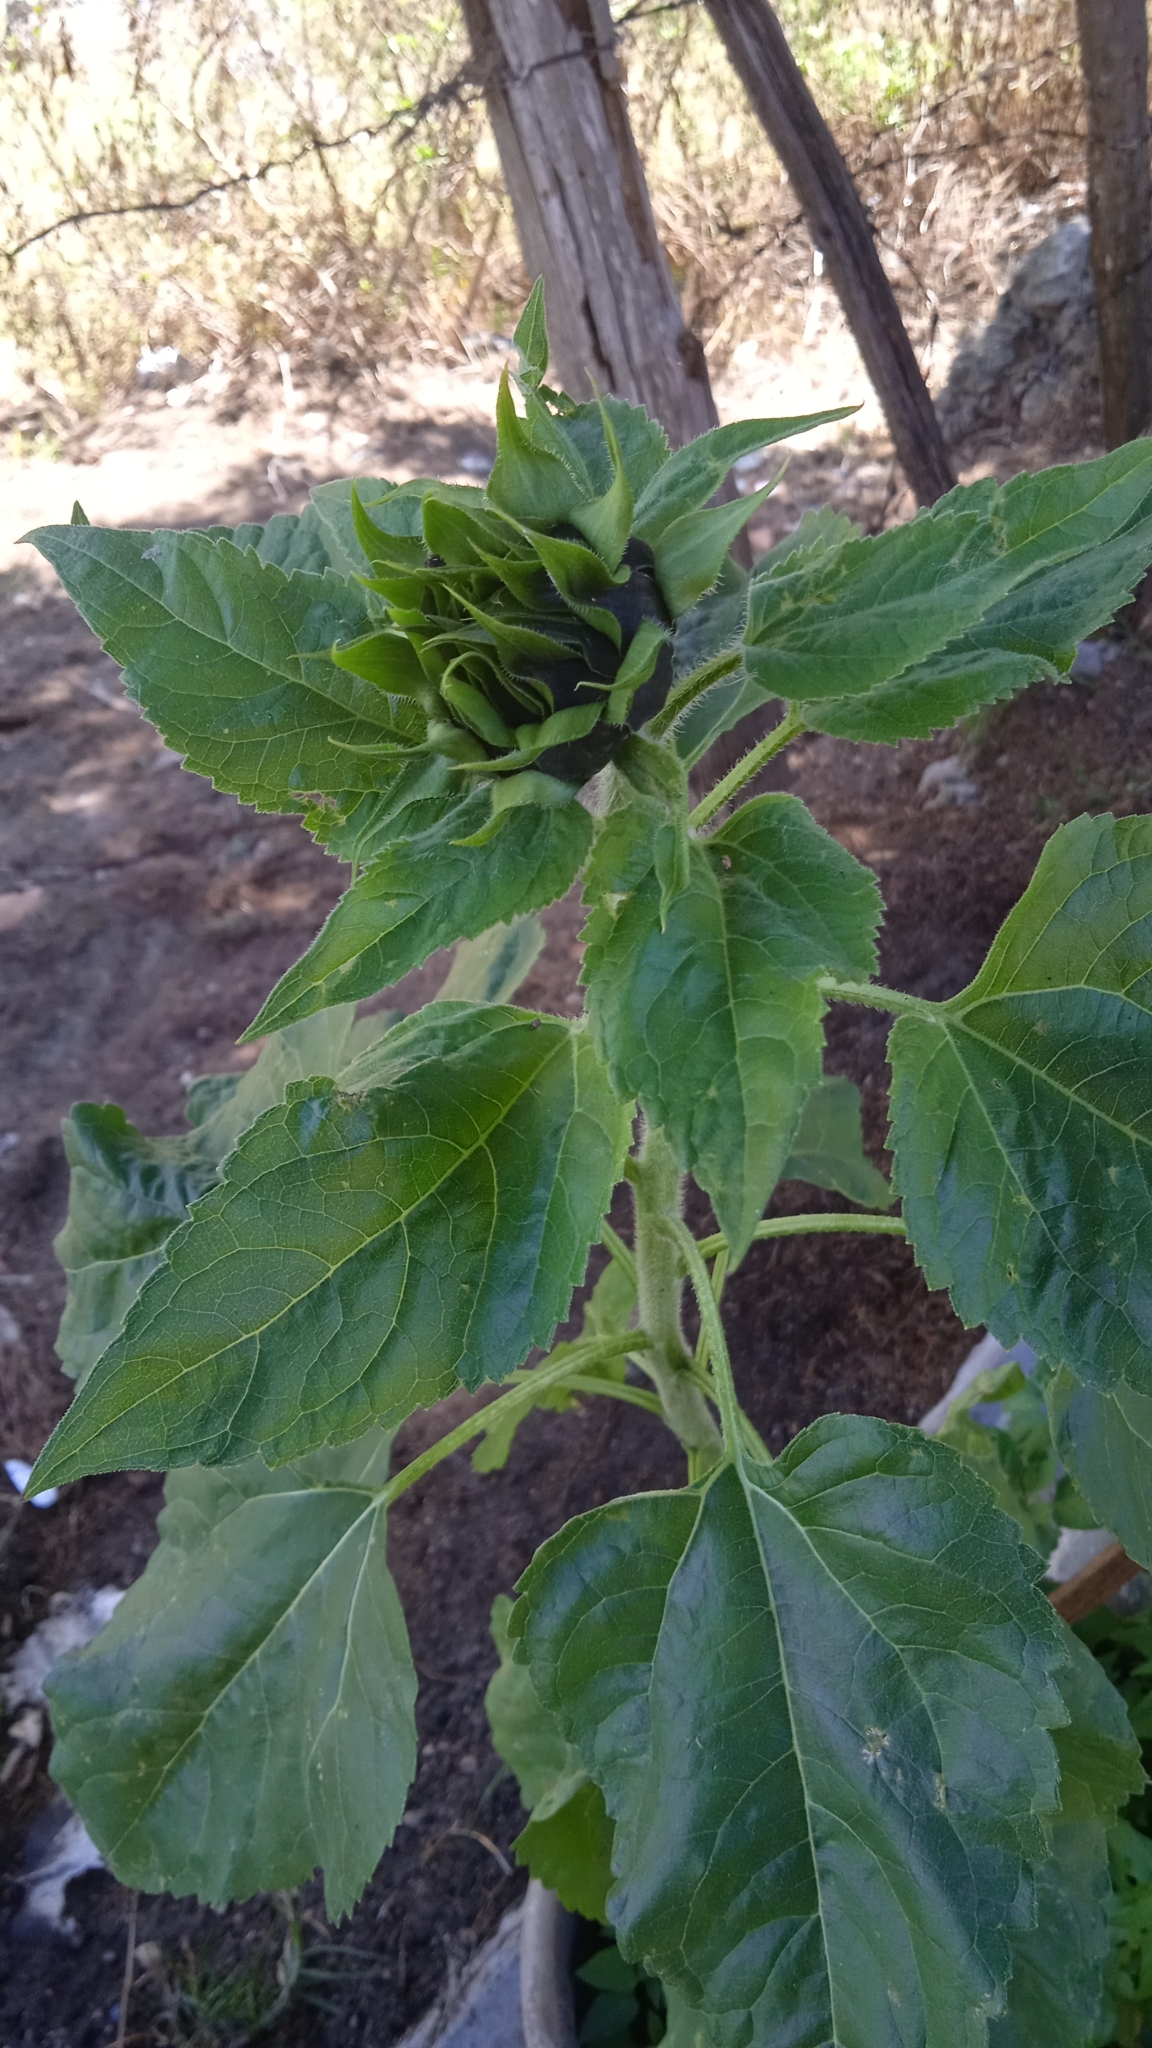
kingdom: Plantae
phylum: Tracheophyta
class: Magnoliopsida
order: Asterales
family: Asteraceae
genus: Helianthus
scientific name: Helianthus annuus
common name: Sunflower
